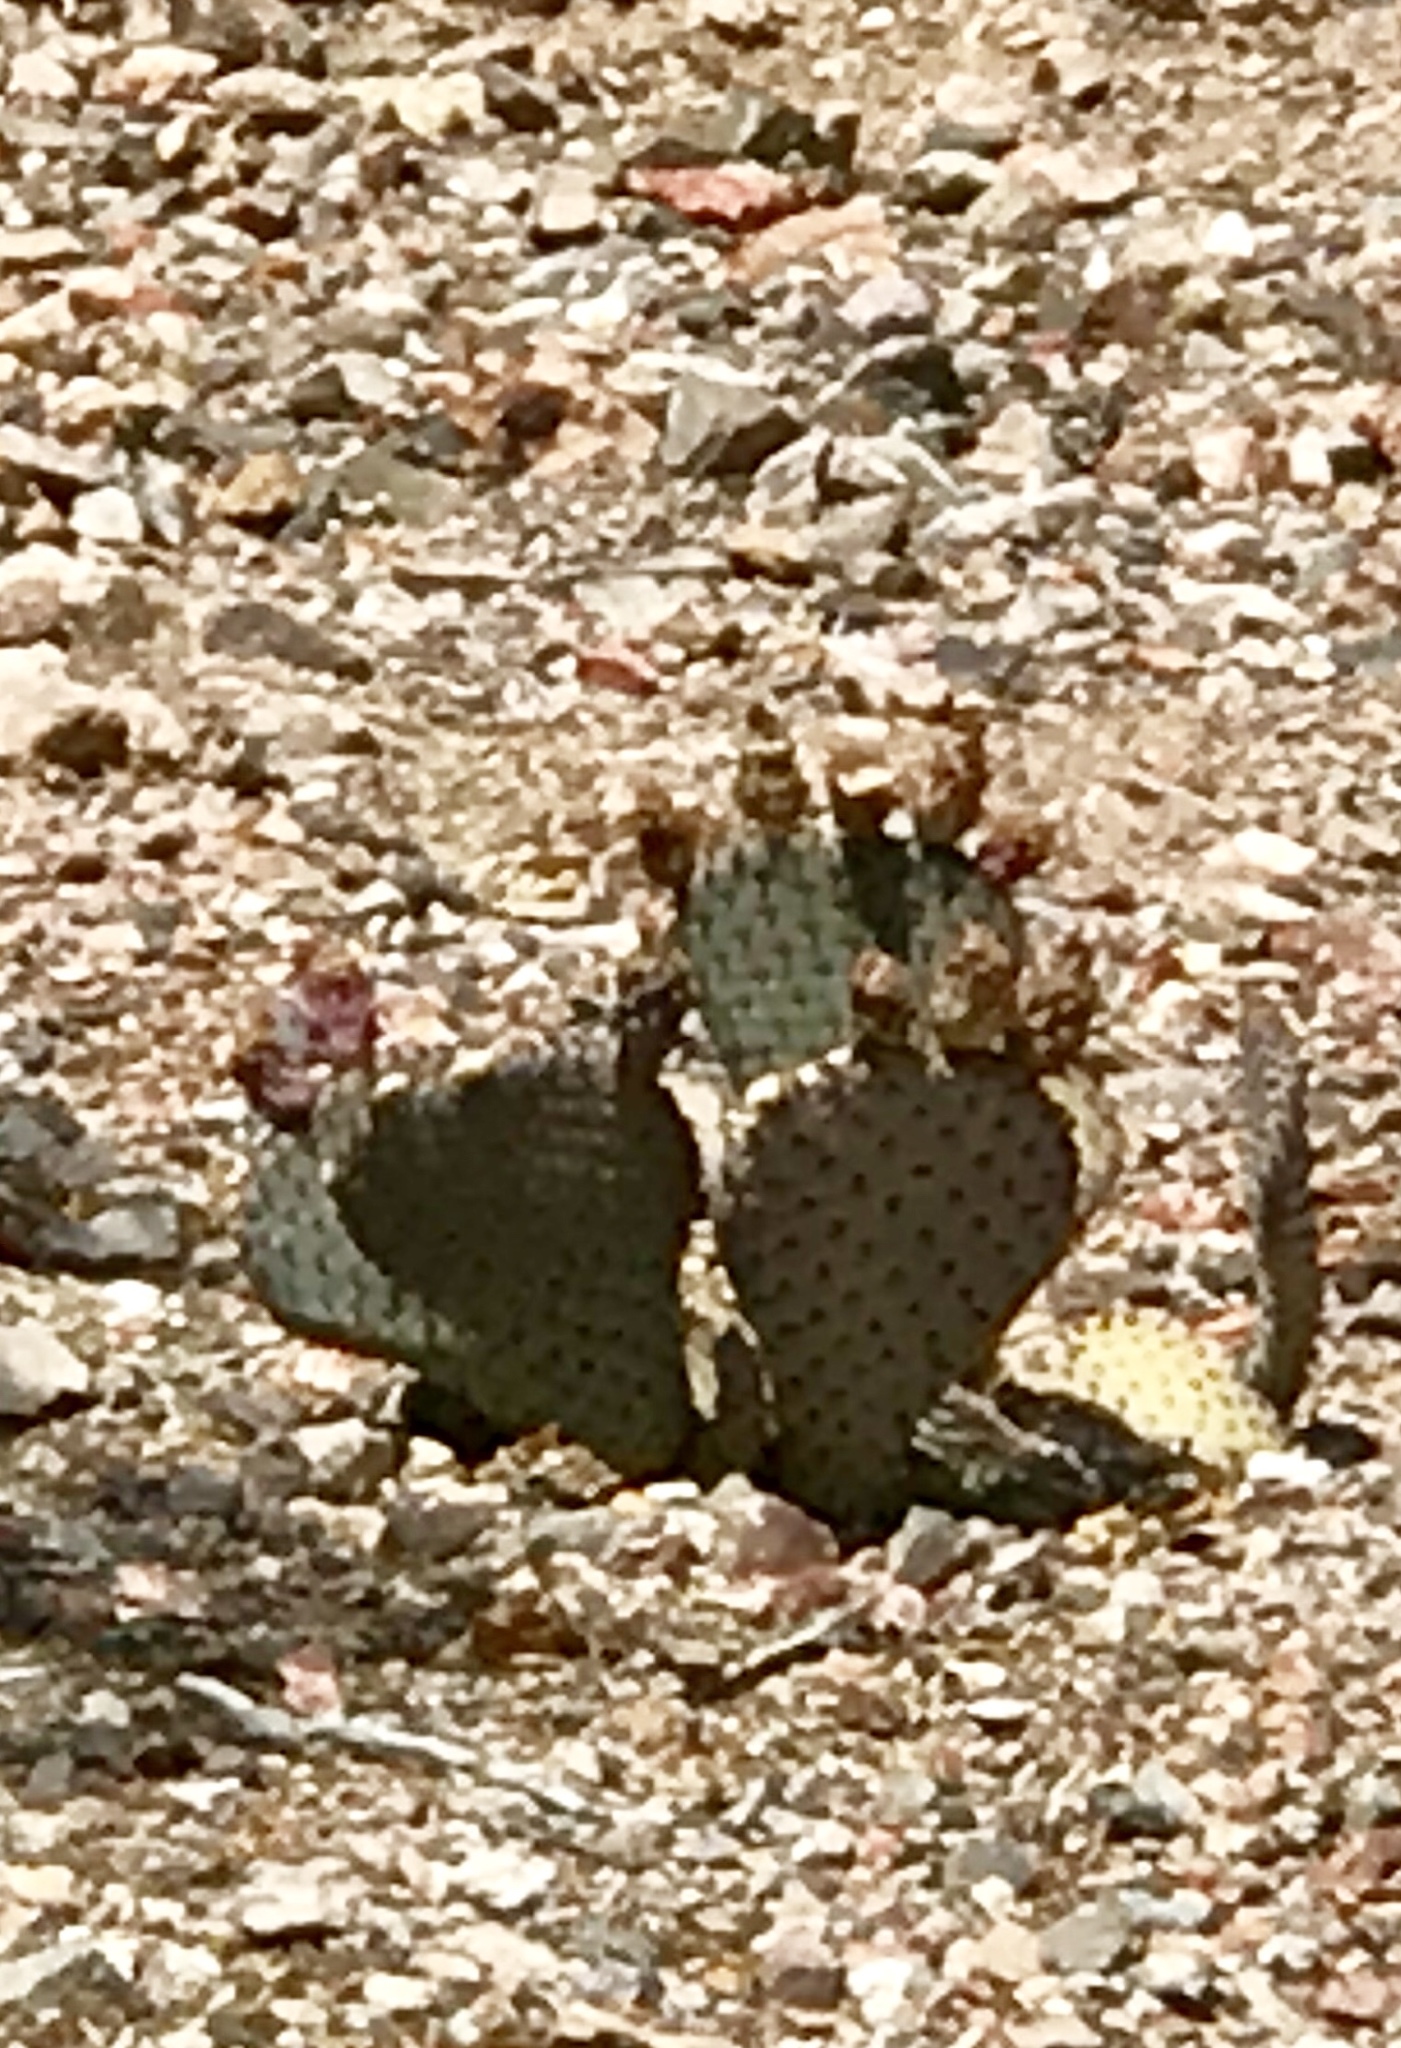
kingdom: Plantae
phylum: Tracheophyta
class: Magnoliopsida
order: Caryophyllales
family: Cactaceae
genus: Opuntia
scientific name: Opuntia basilaris
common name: Beavertail prickly-pear
